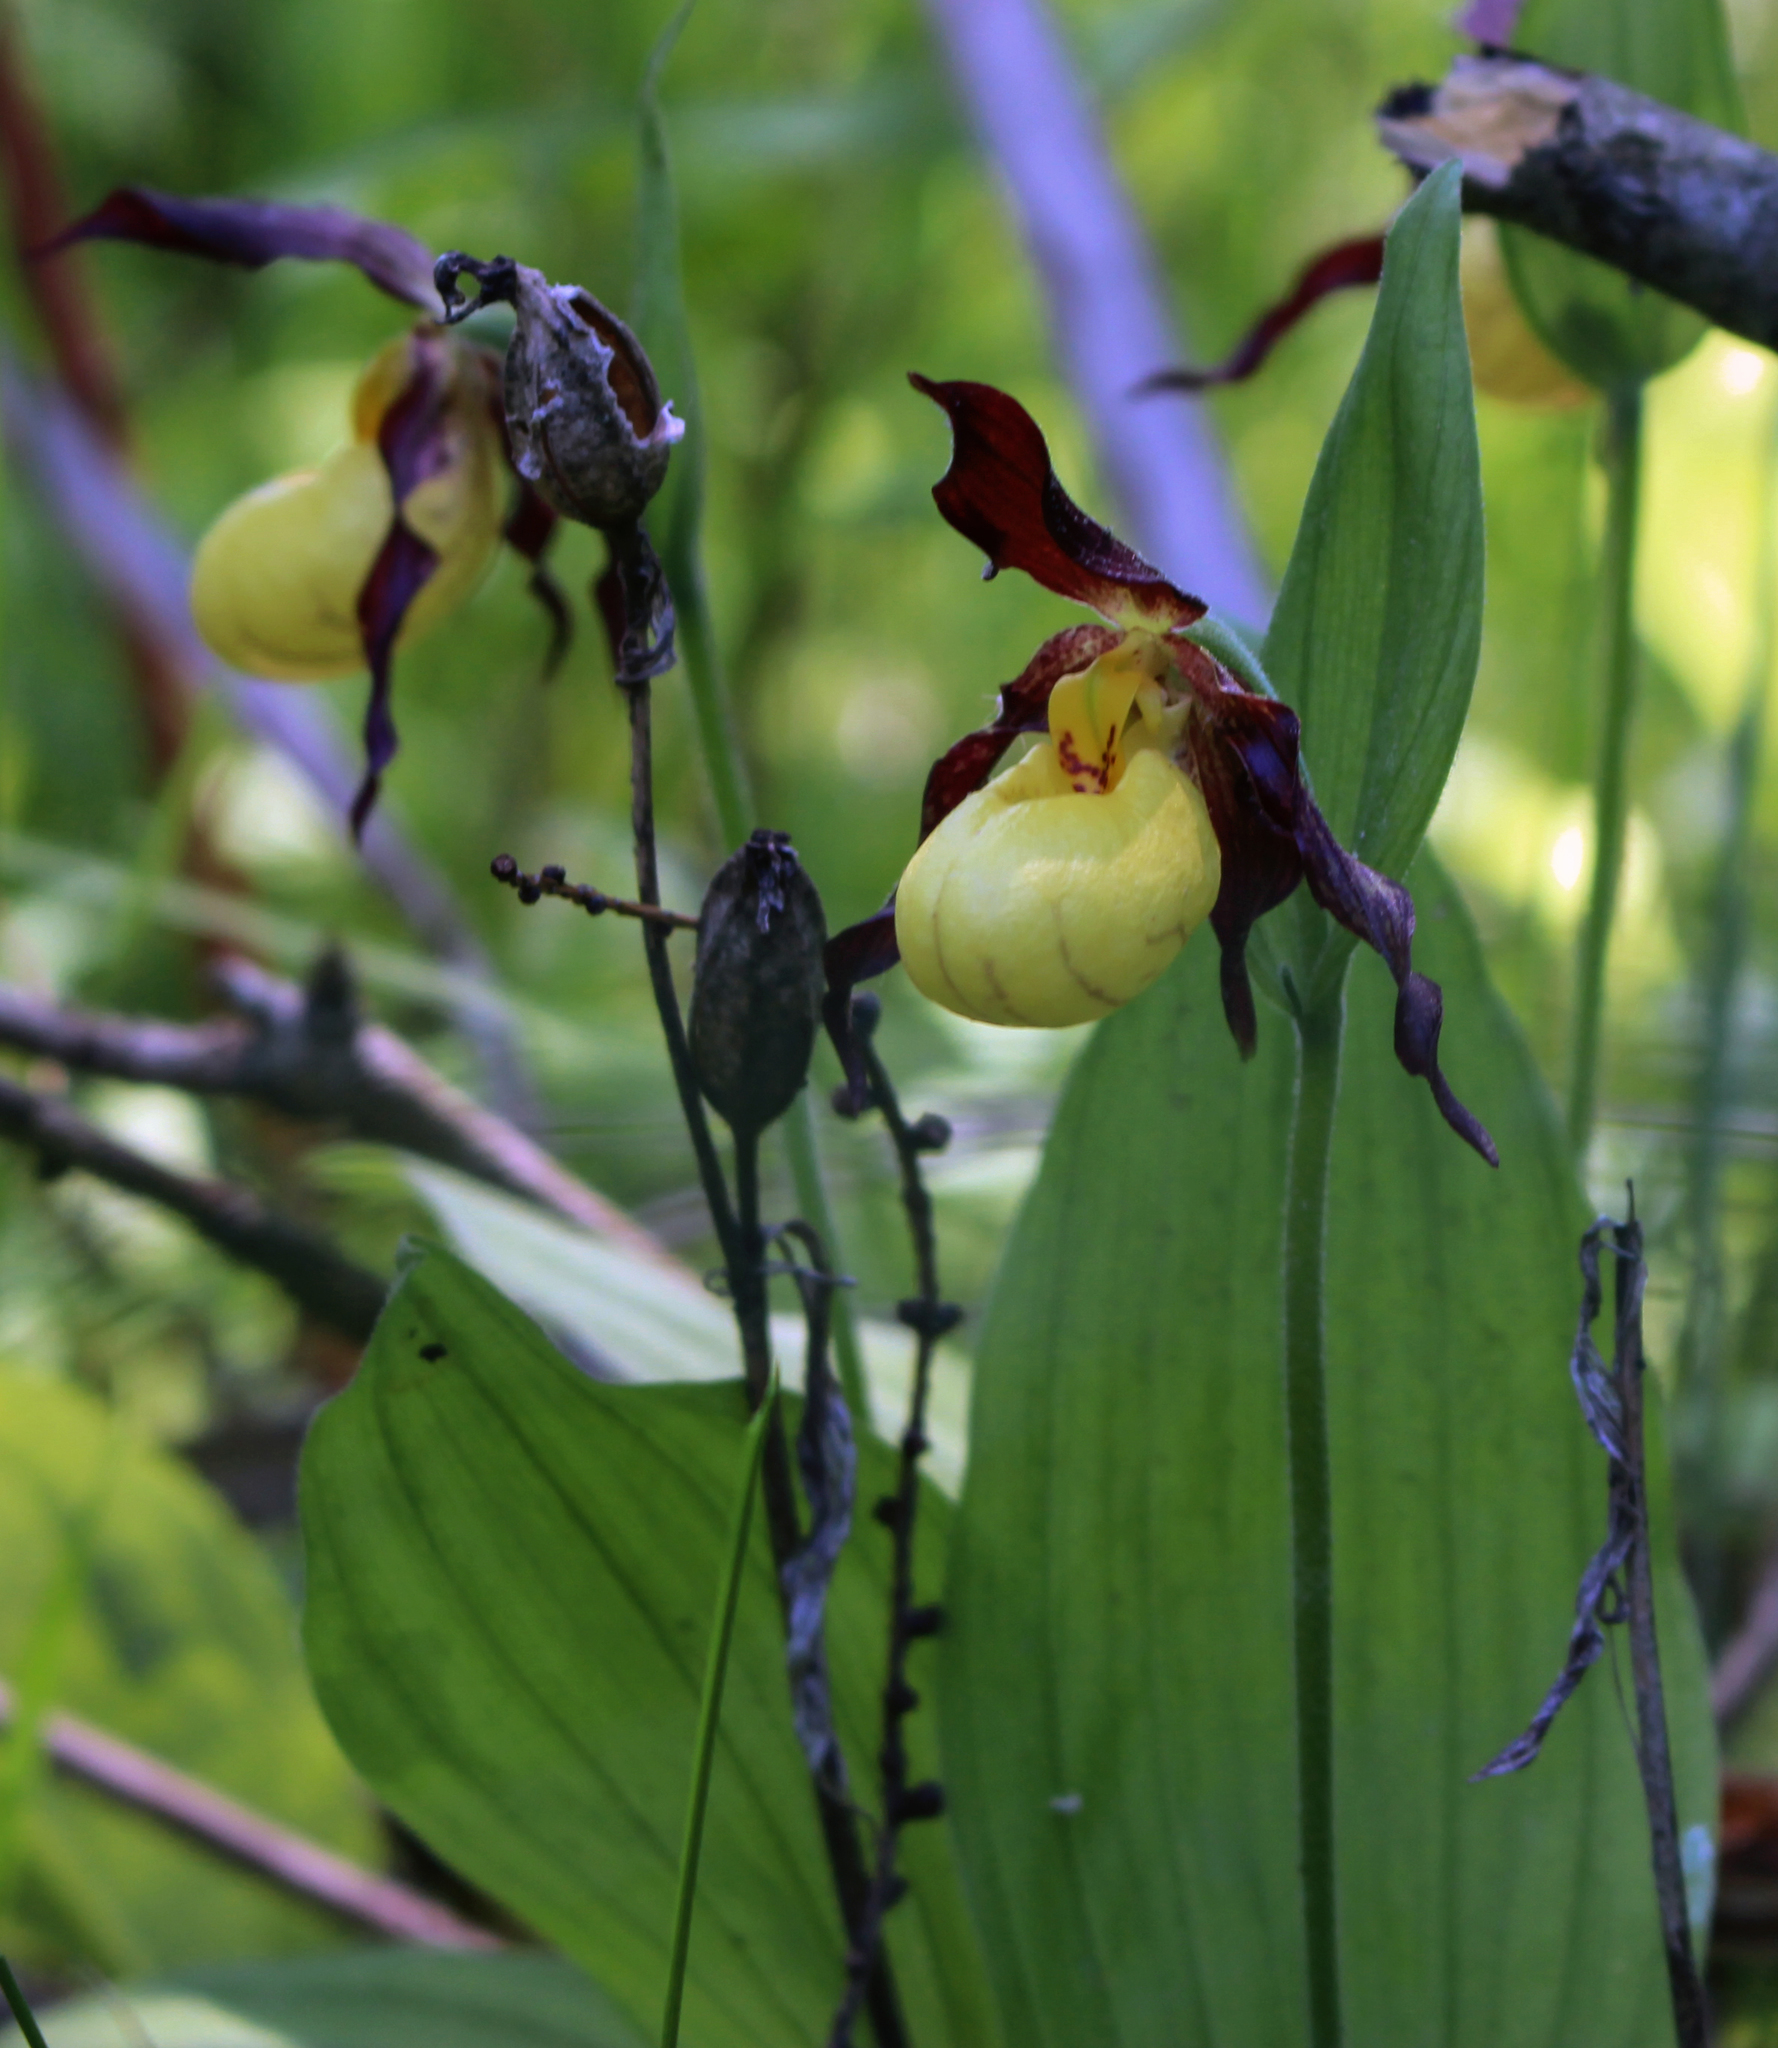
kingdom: Plantae
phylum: Tracheophyta
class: Liliopsida
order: Asparagales
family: Orchidaceae
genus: Cypripedium
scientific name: Cypripedium parviflorum
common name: American yellow lady's-slipper
